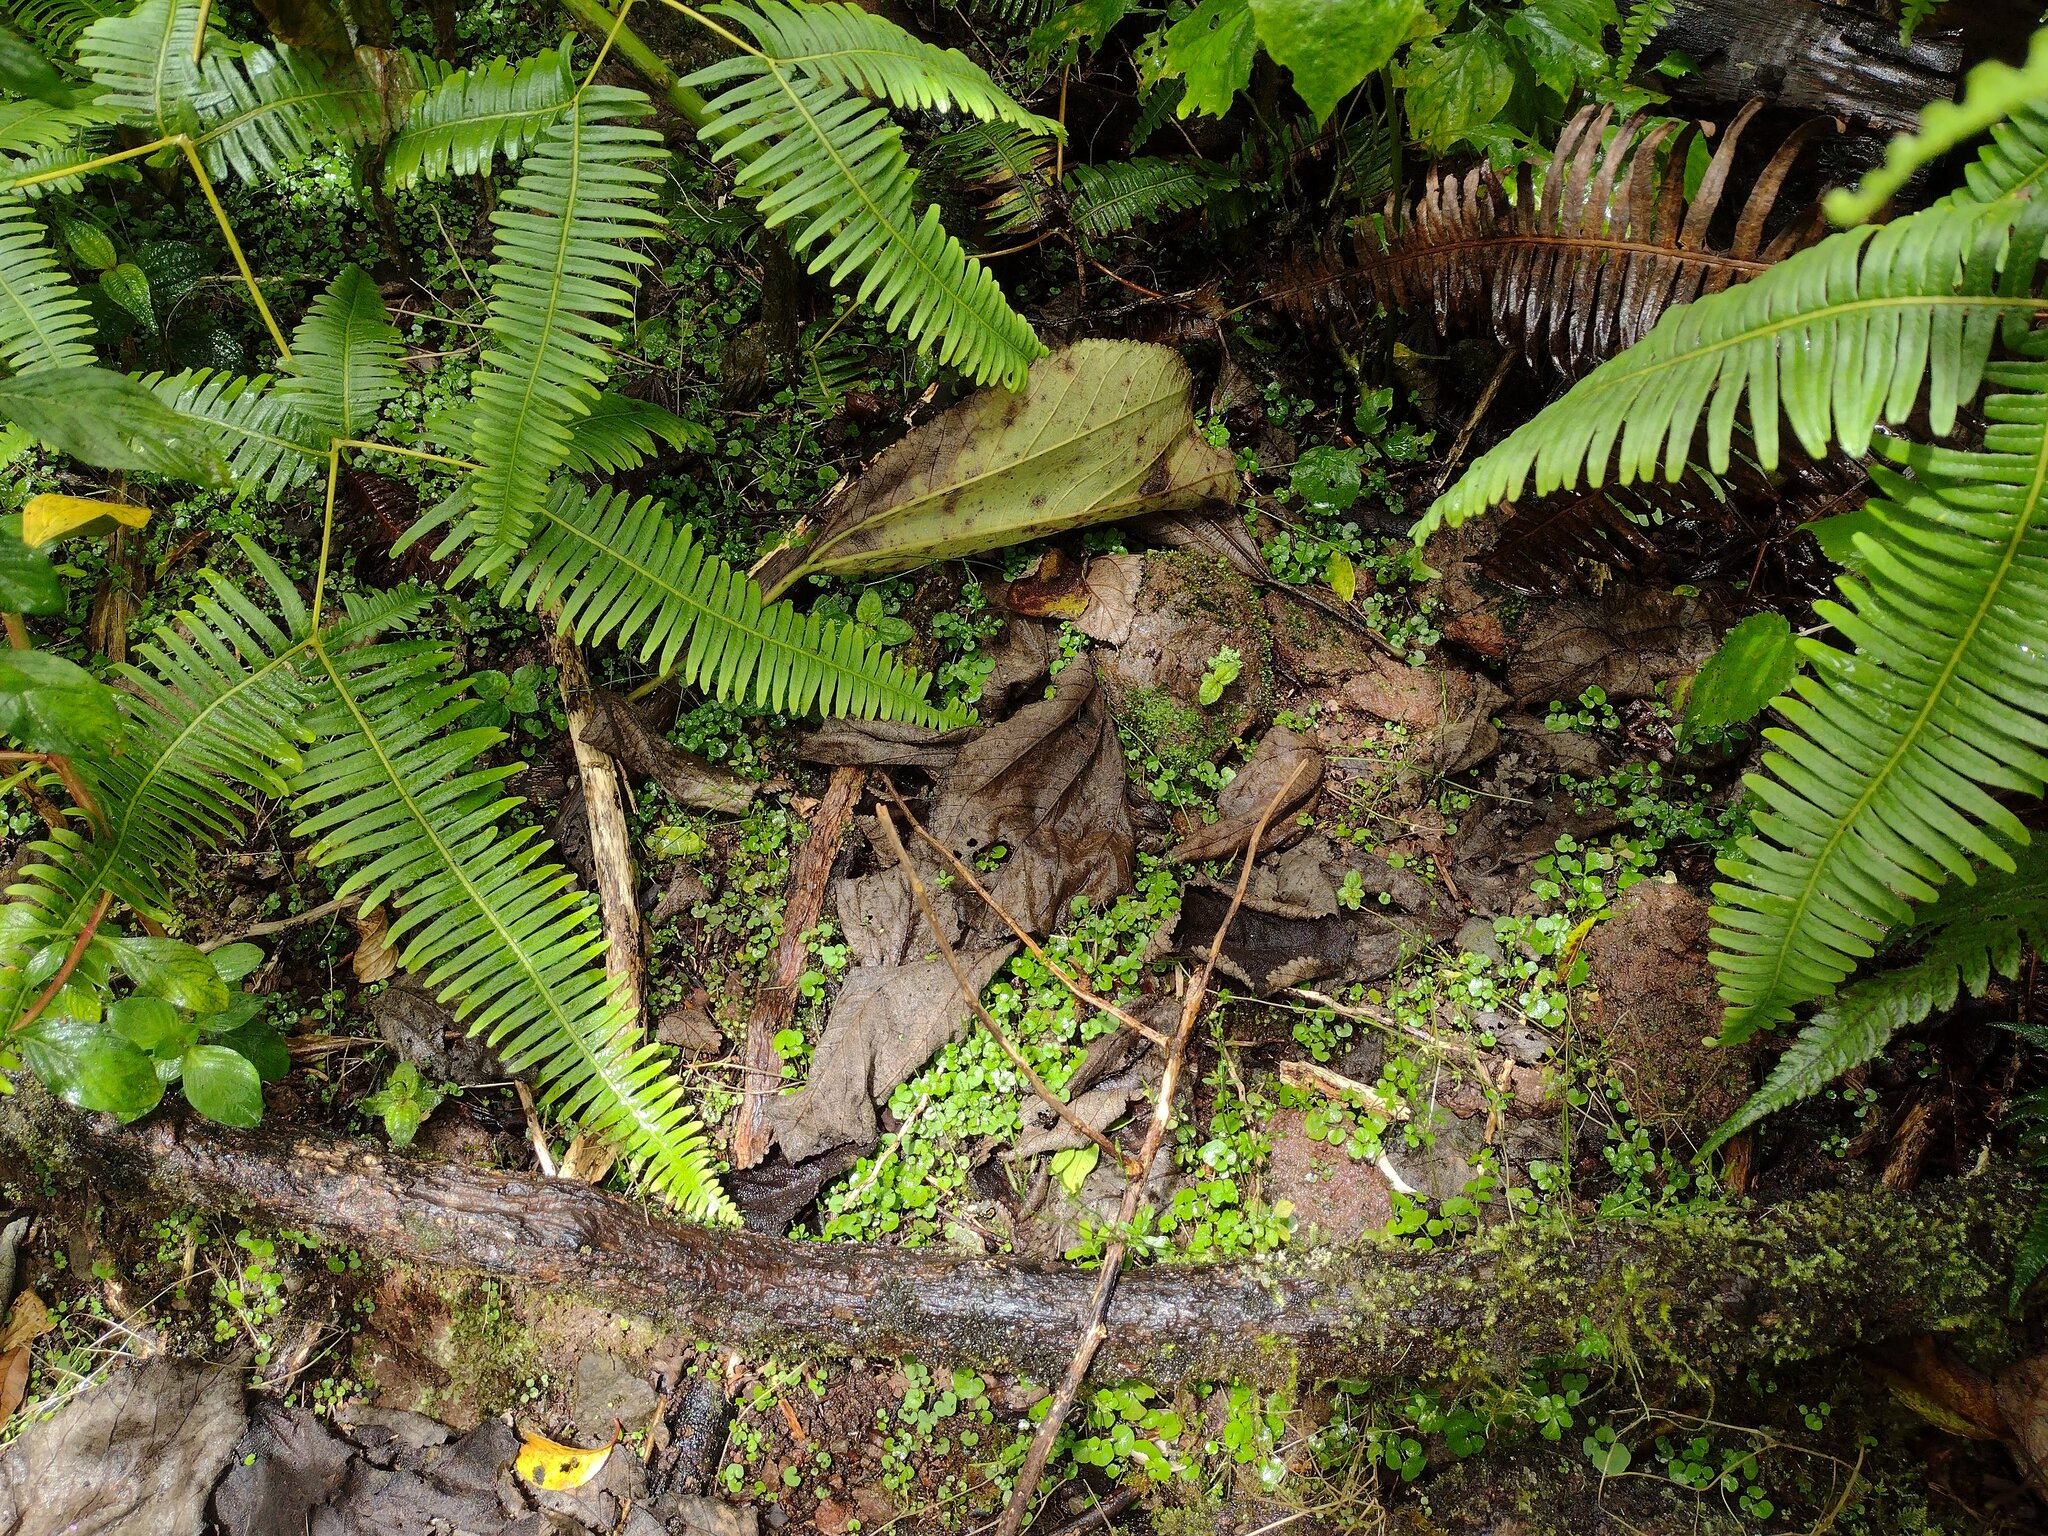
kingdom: Plantae
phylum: Tracheophyta
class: Magnoliopsida
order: Brassicales
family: Brassicaceae
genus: Cardamine
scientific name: Cardamine hirsuta
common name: Hairy bittercress
